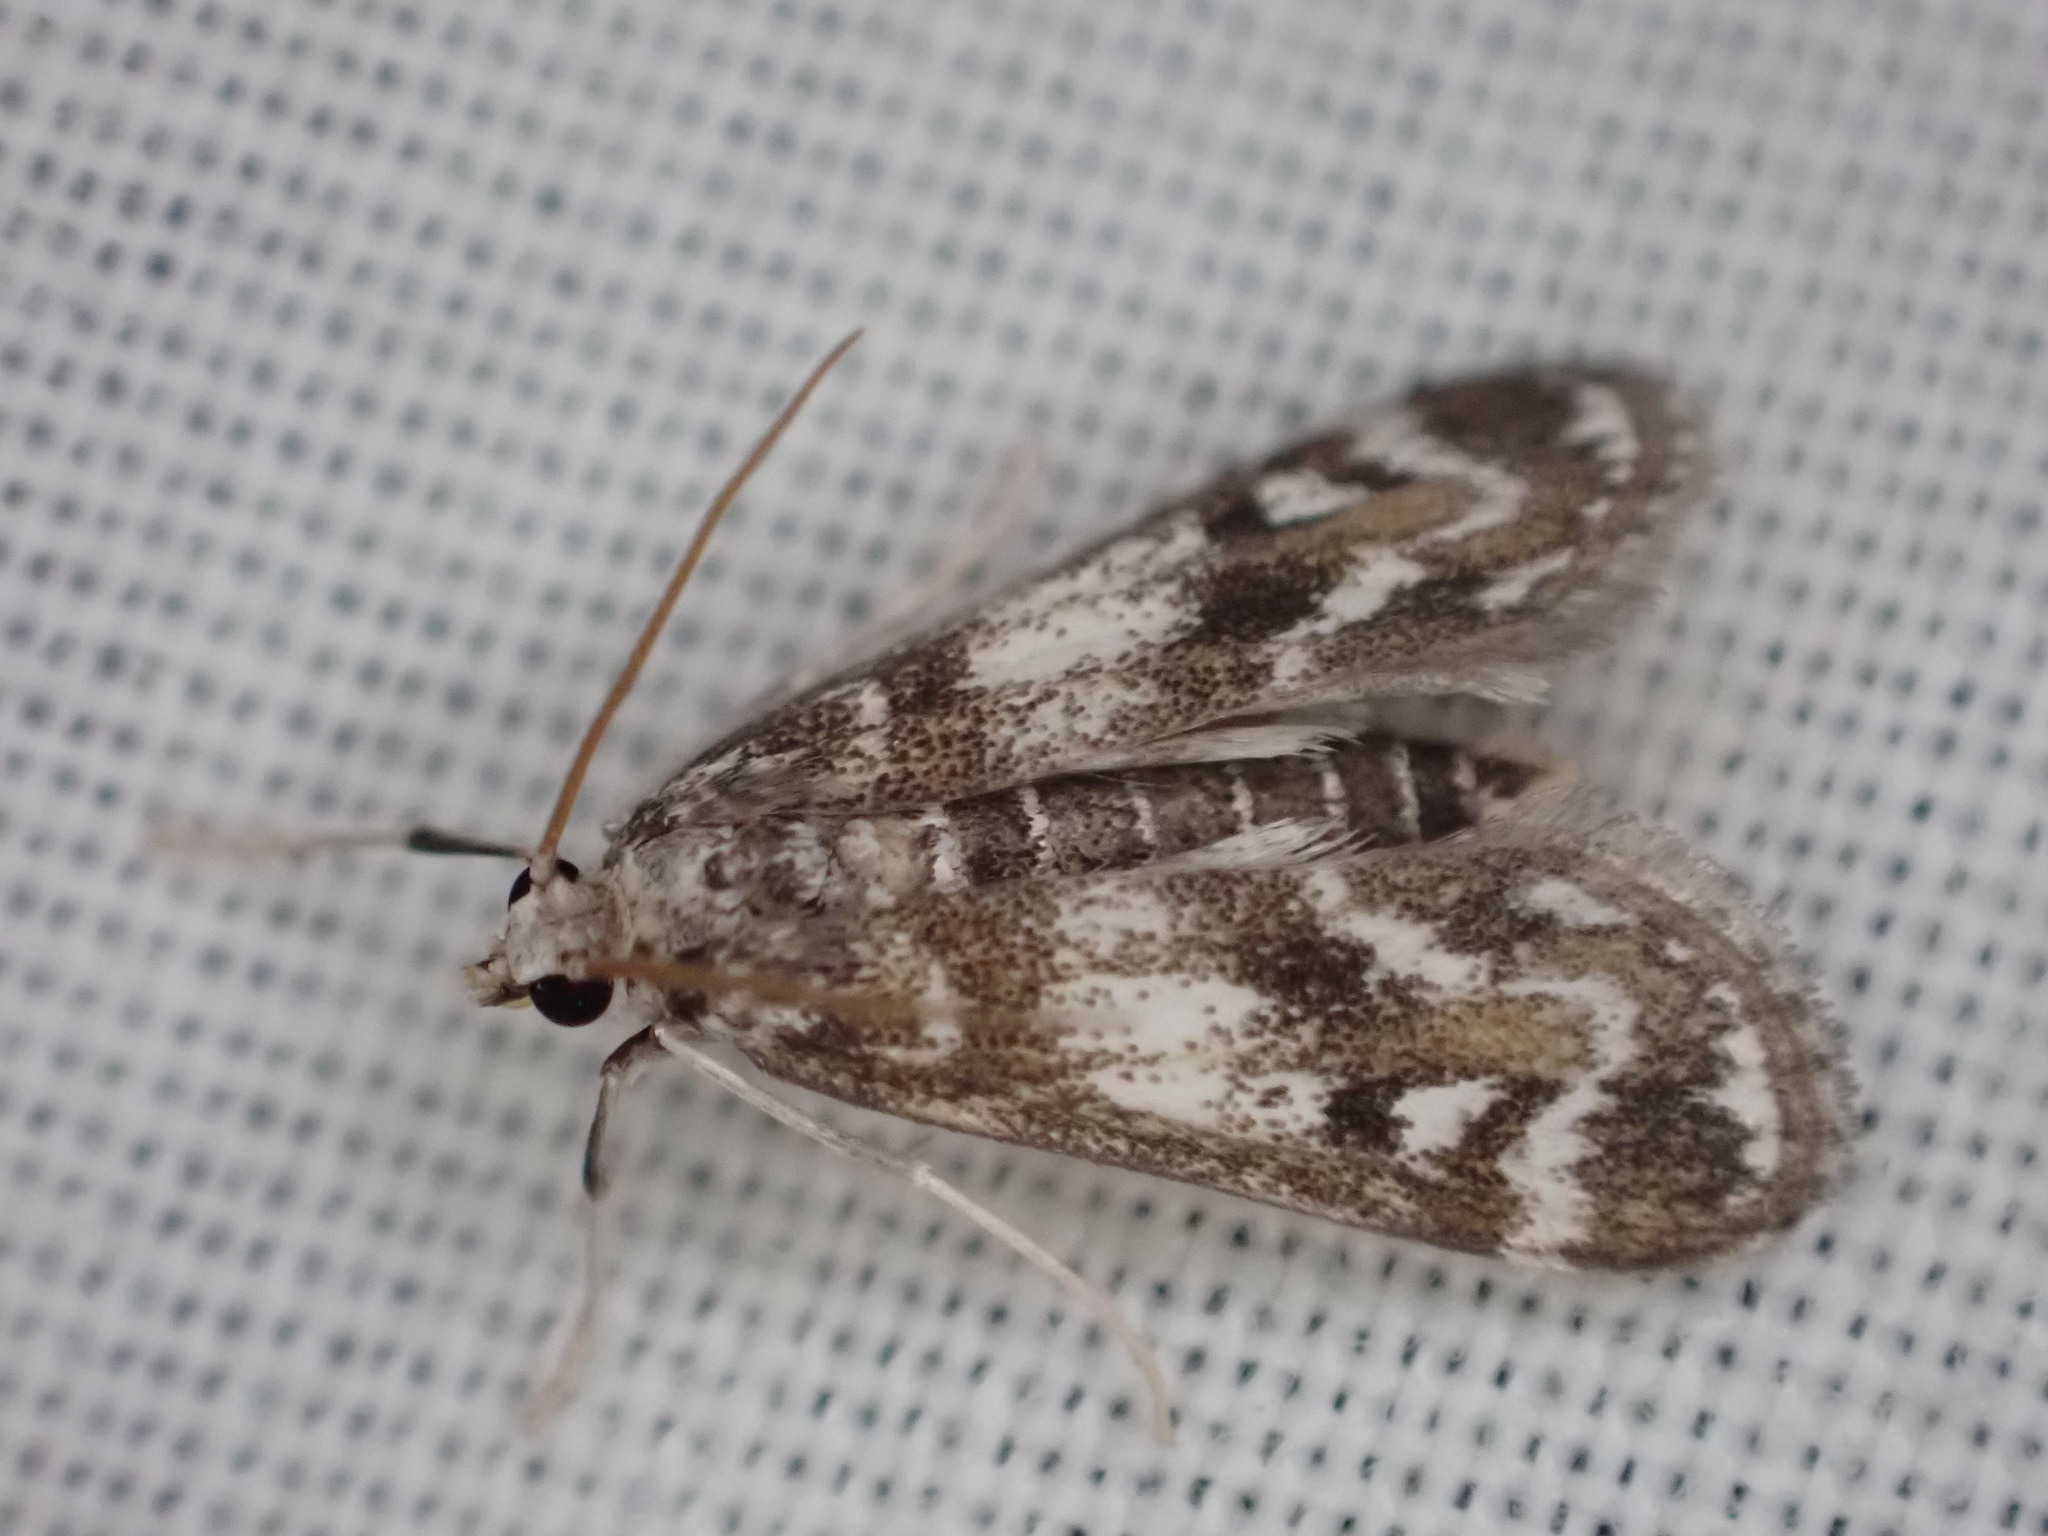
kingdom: Animalia
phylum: Arthropoda
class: Insecta
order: Lepidoptera
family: Crambidae
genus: Hygraula
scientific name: Hygraula nitens
